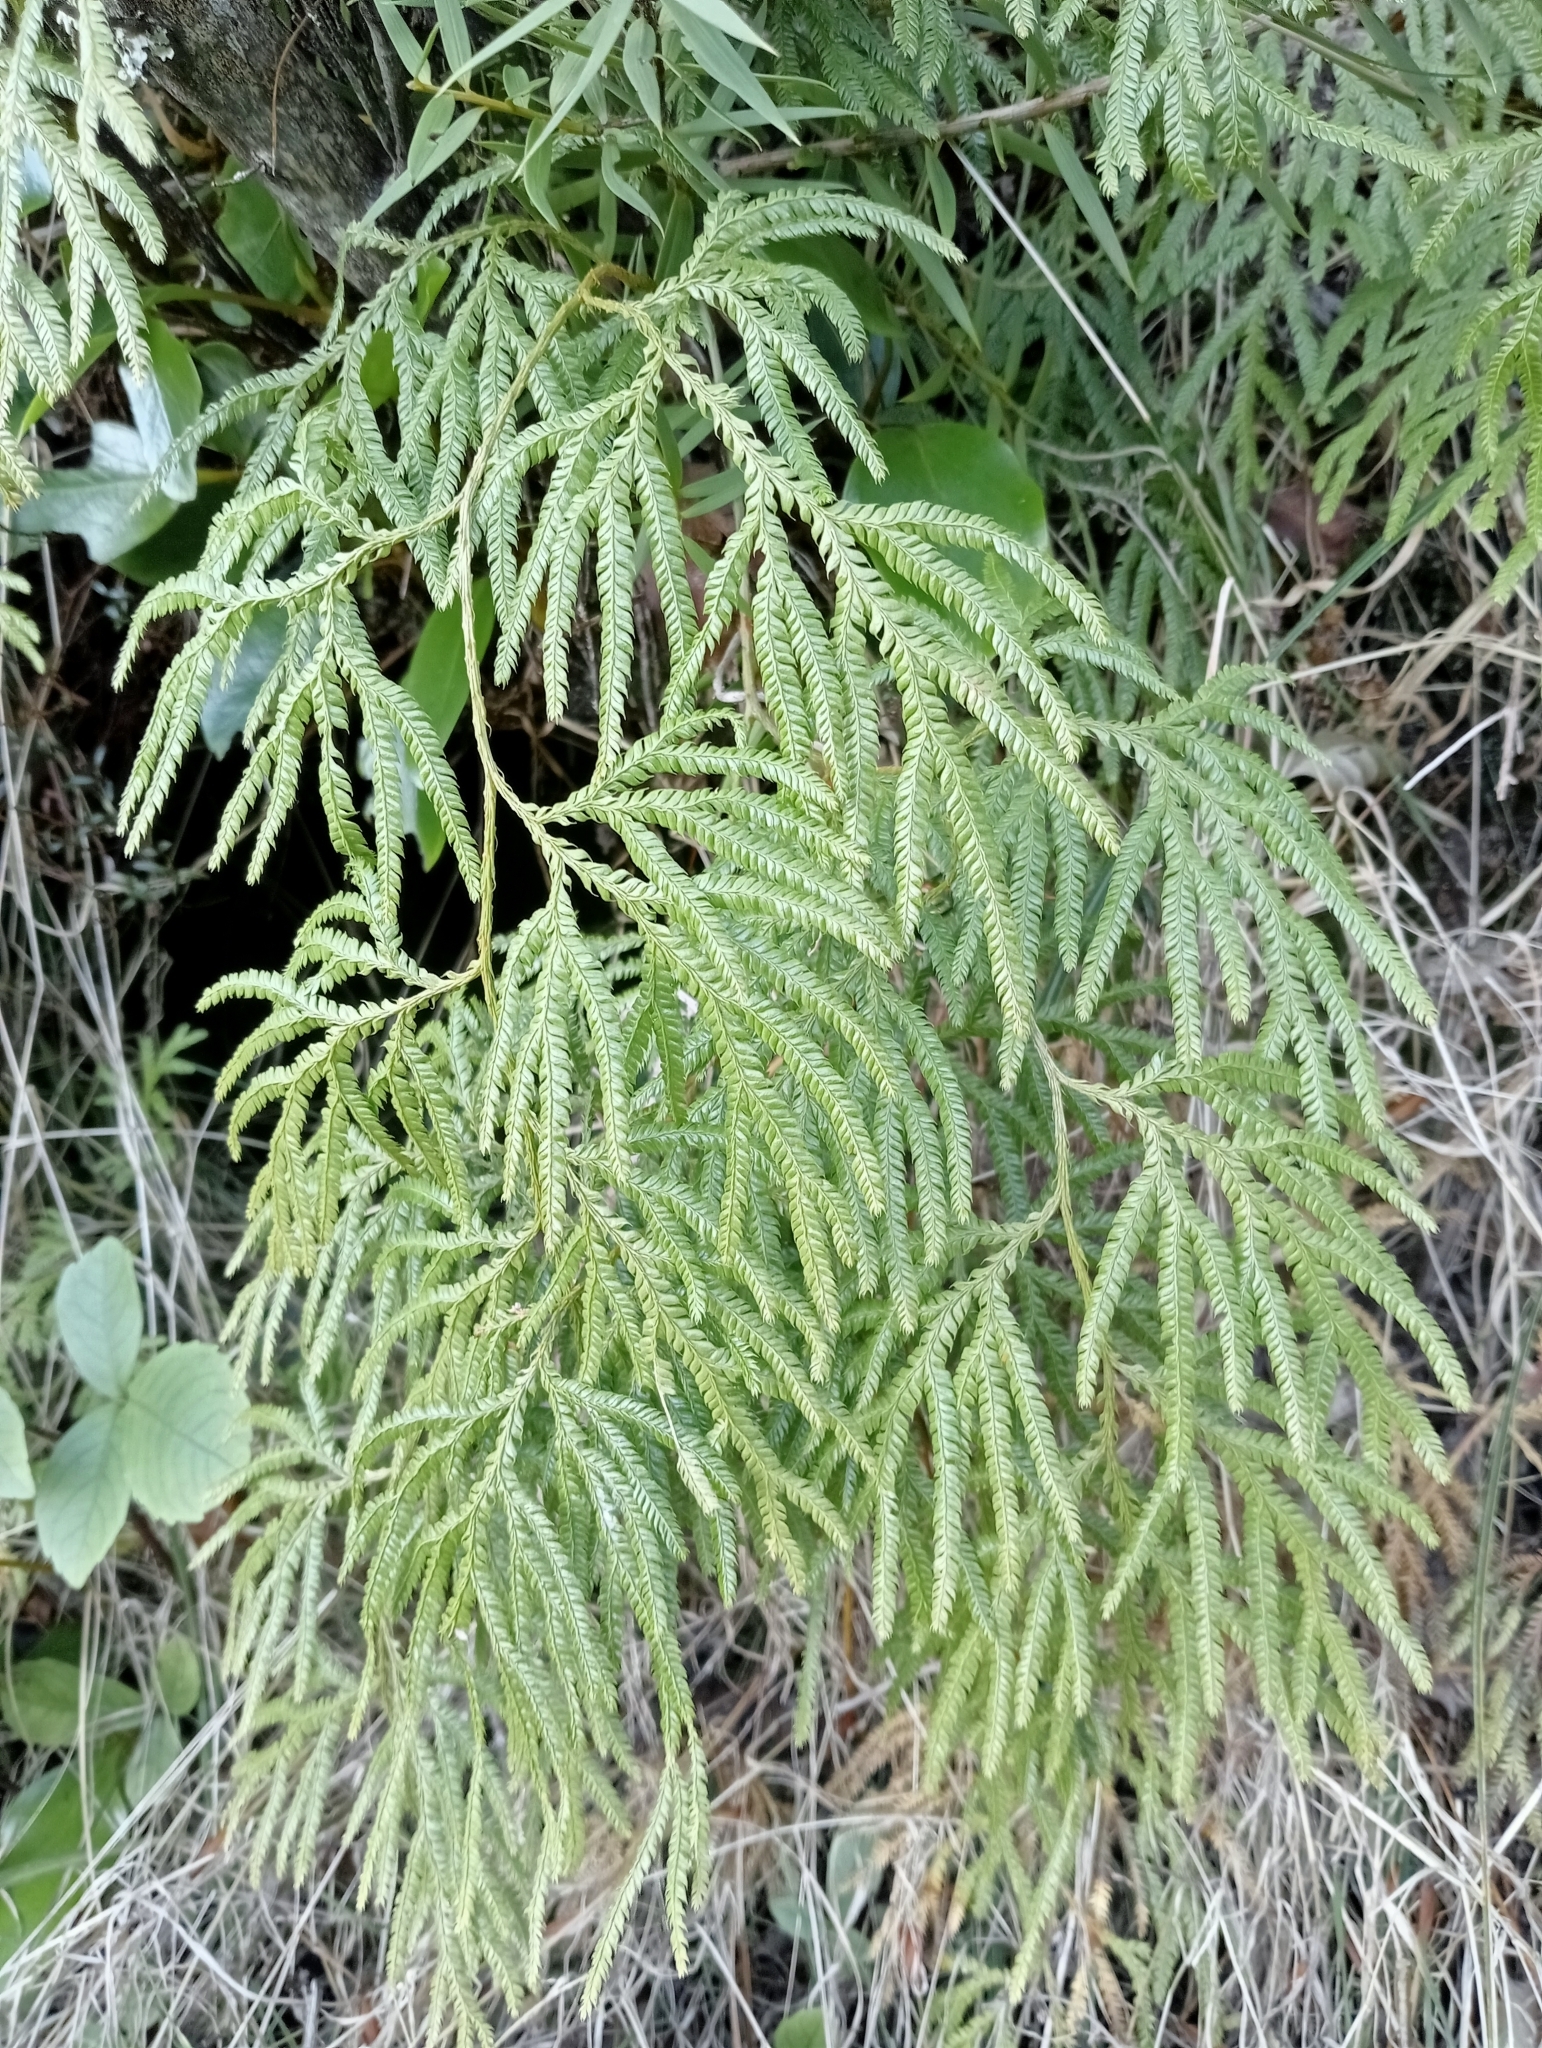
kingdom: Plantae
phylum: Tracheophyta
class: Lycopodiopsida
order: Lycopodiales
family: Lycopodiaceae
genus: Lycopodium
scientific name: Lycopodium volubile
